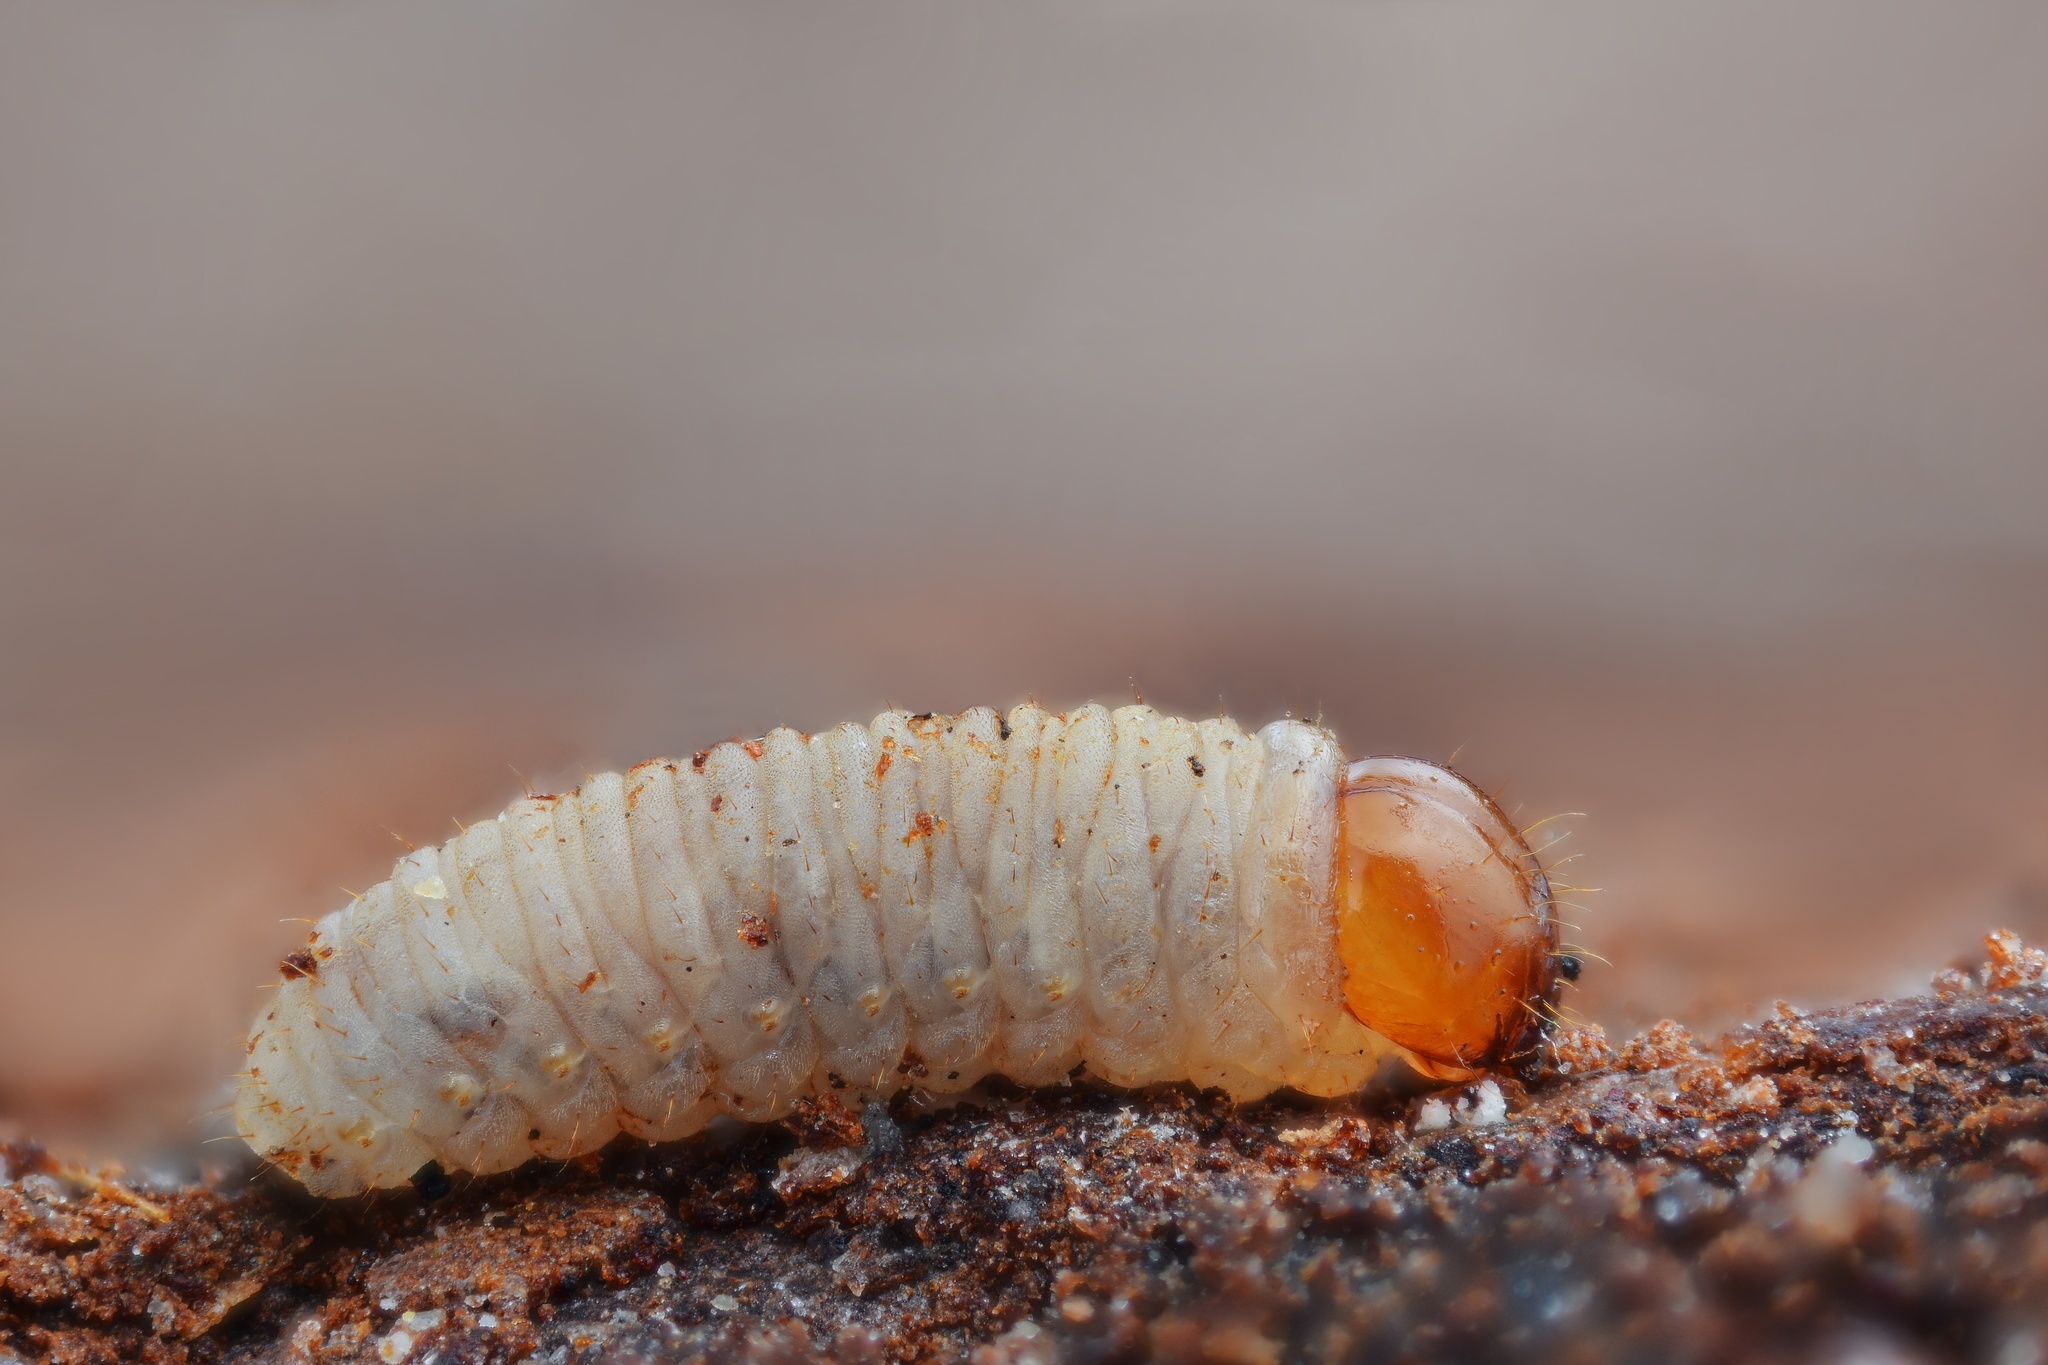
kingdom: Animalia
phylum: Arthropoda
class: Insecta
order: Coleoptera
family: Curculionidae
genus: Dendroctonus
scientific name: Dendroctonus micans
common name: Great spruce bark beetle
